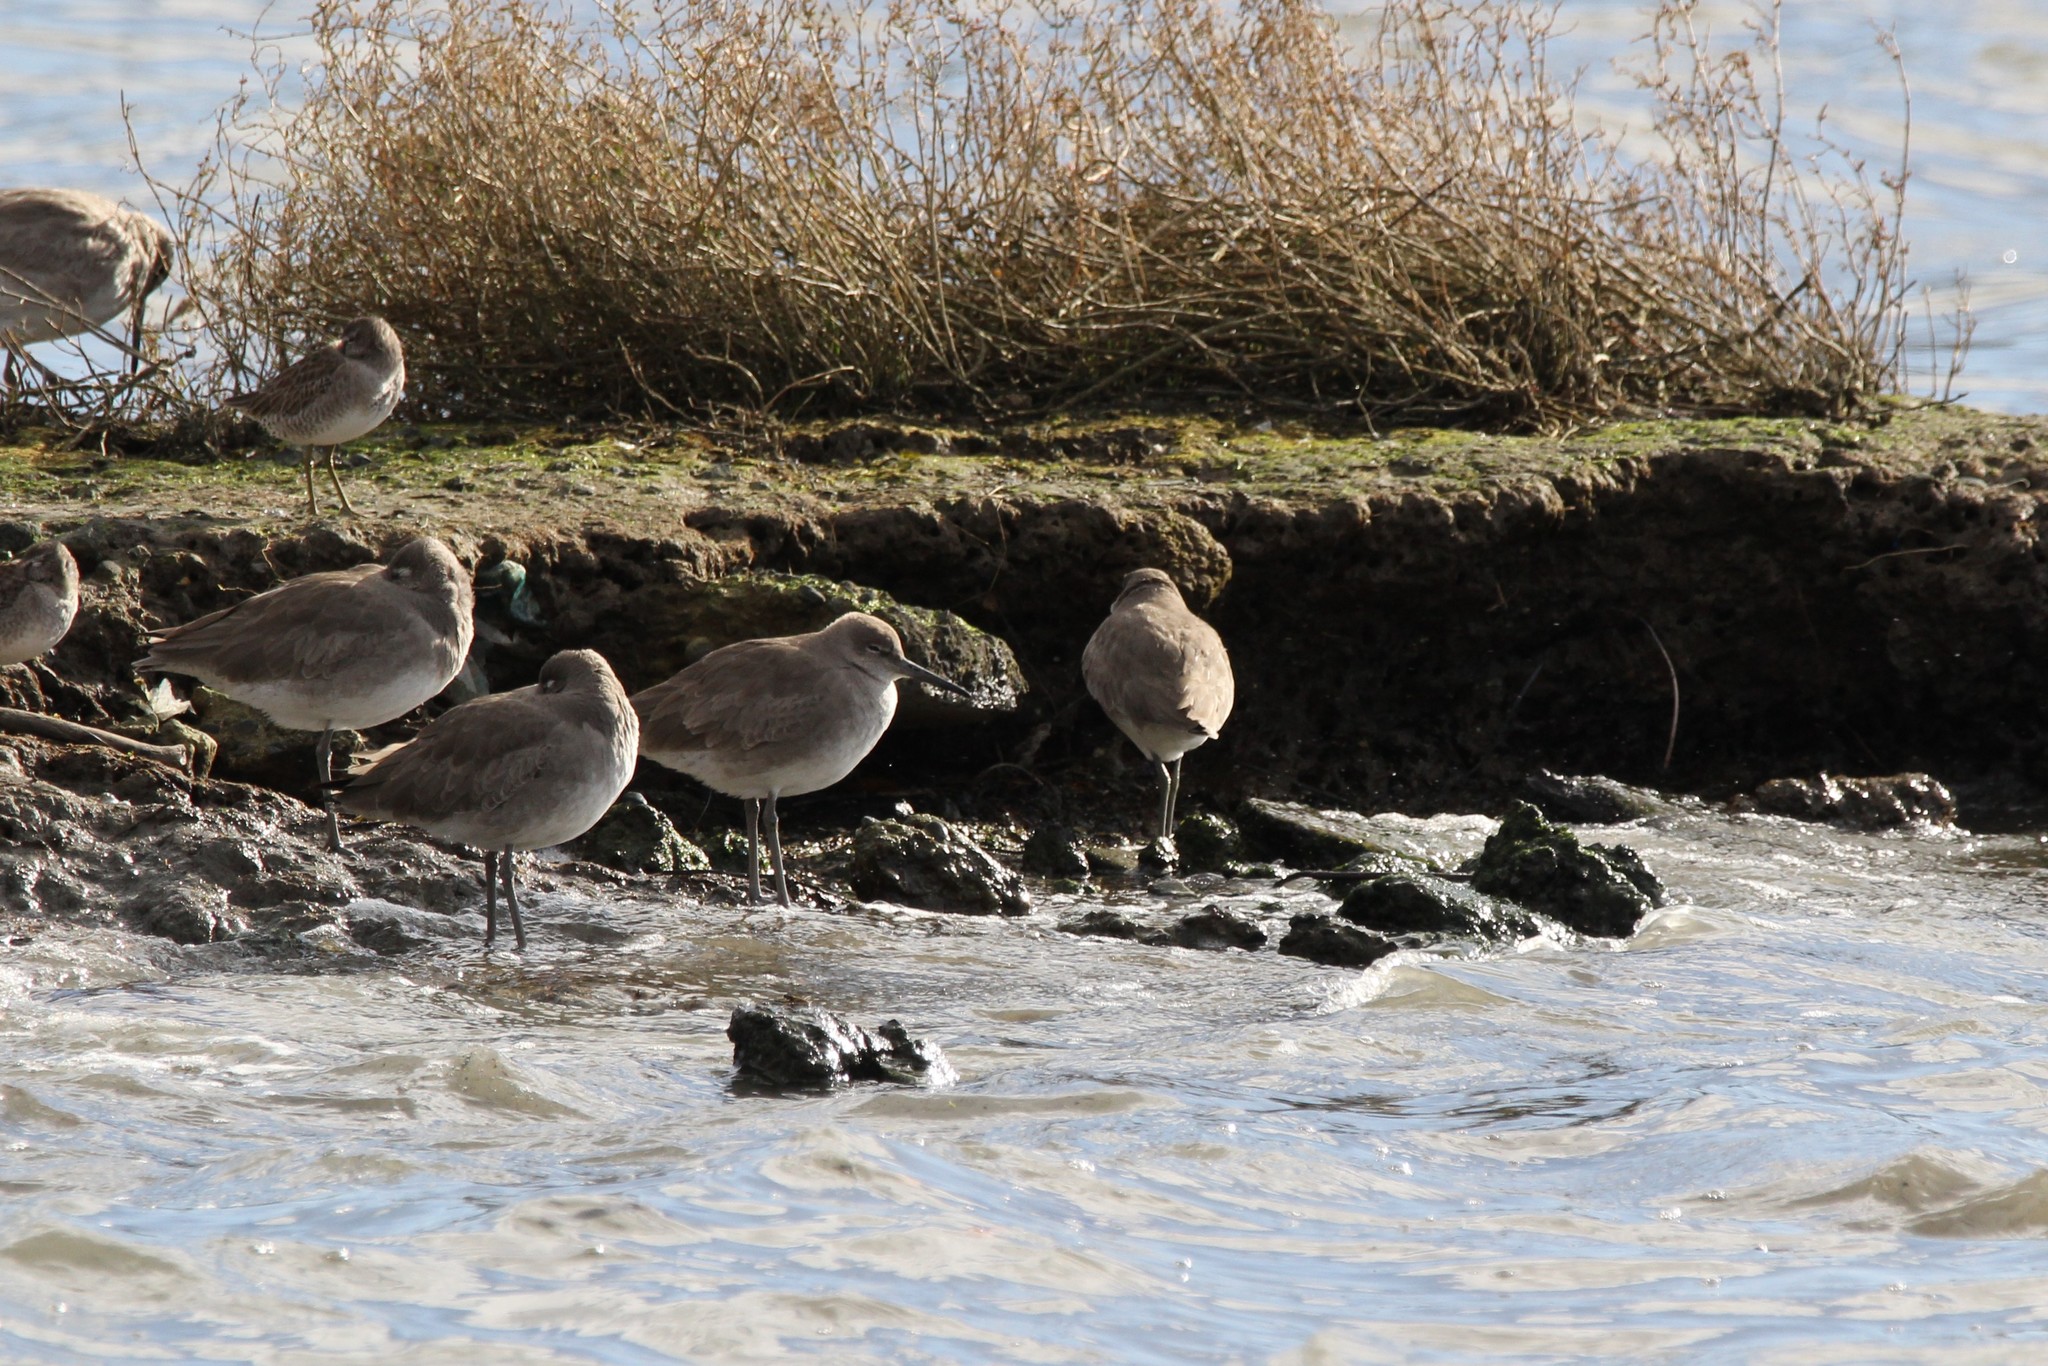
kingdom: Animalia
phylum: Chordata
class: Aves
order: Charadriiformes
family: Scolopacidae
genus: Tringa
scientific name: Tringa semipalmata
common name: Willet
